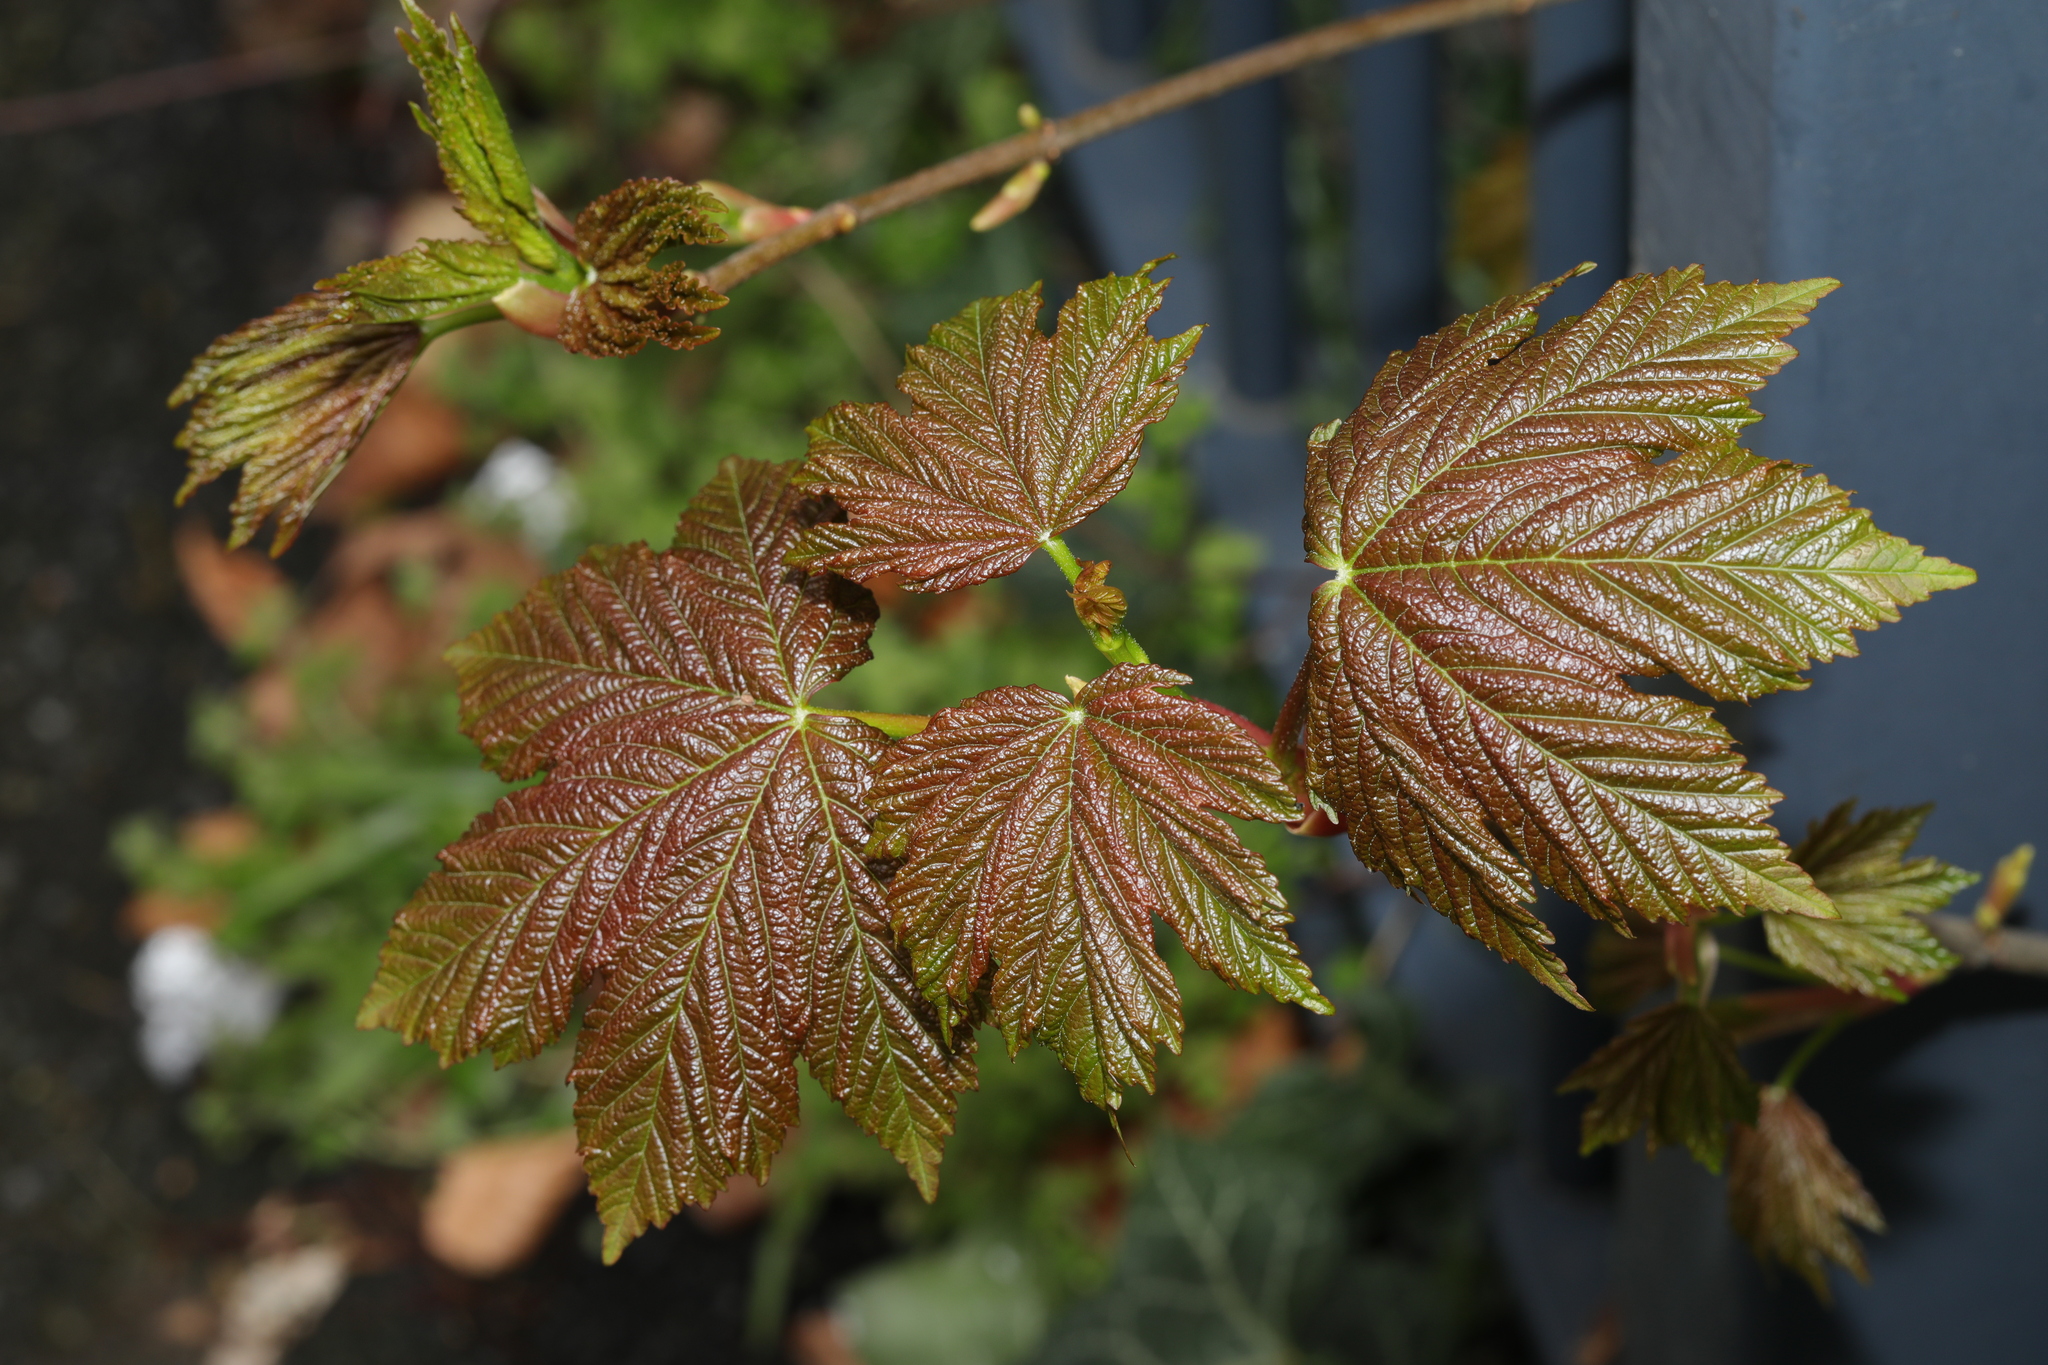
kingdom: Plantae
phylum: Tracheophyta
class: Magnoliopsida
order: Sapindales
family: Sapindaceae
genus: Acer
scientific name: Acer pseudoplatanus
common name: Sycamore
